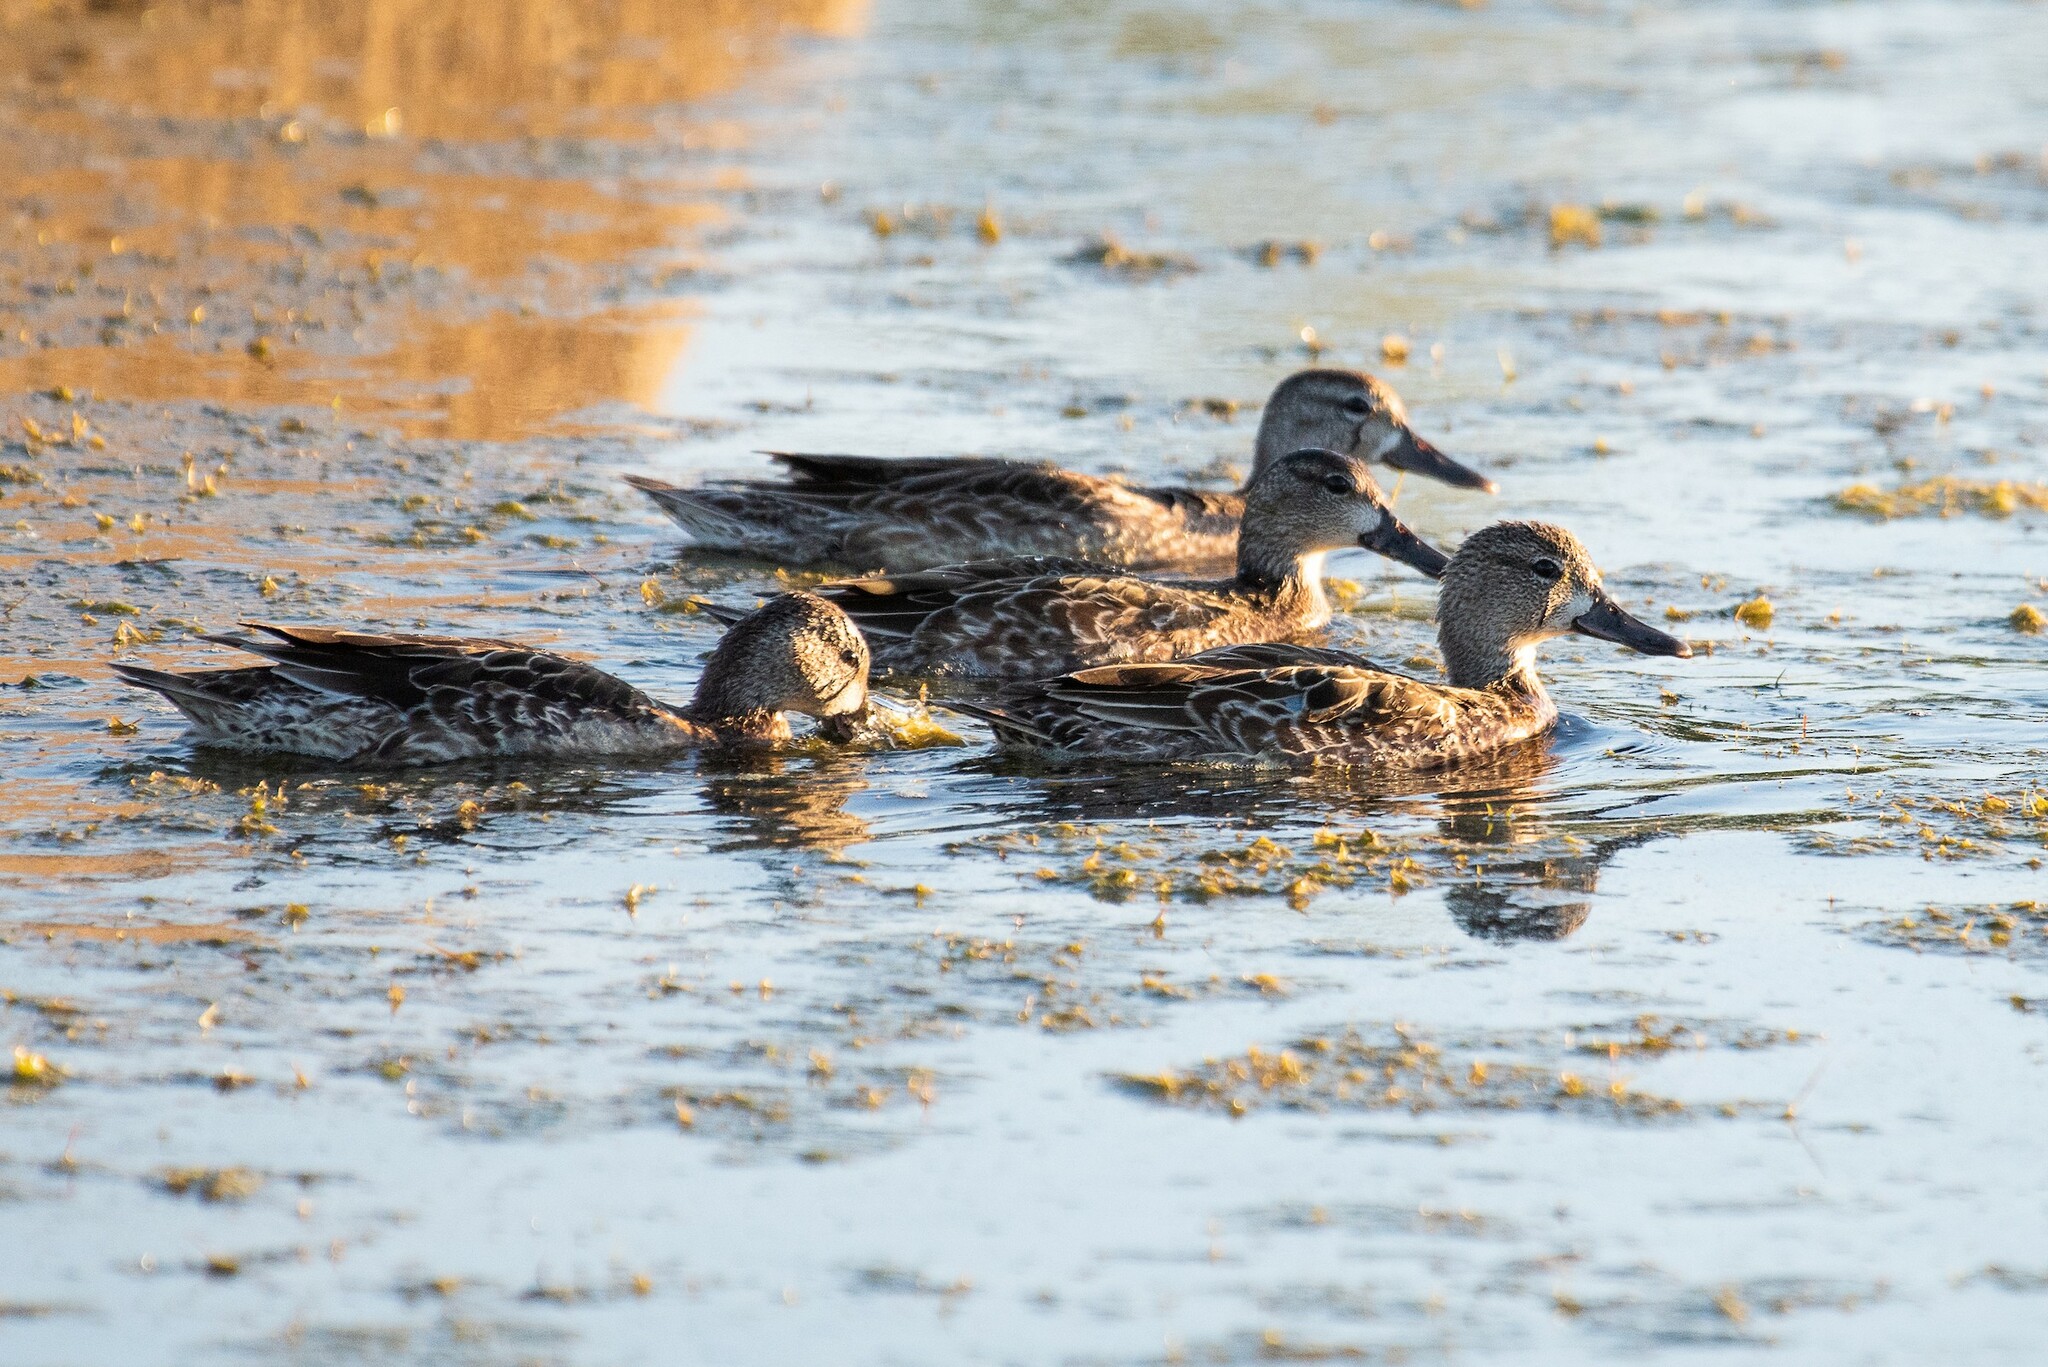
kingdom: Animalia
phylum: Chordata
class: Aves
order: Anseriformes
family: Anatidae
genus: Spatula
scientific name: Spatula discors
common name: Blue-winged teal
